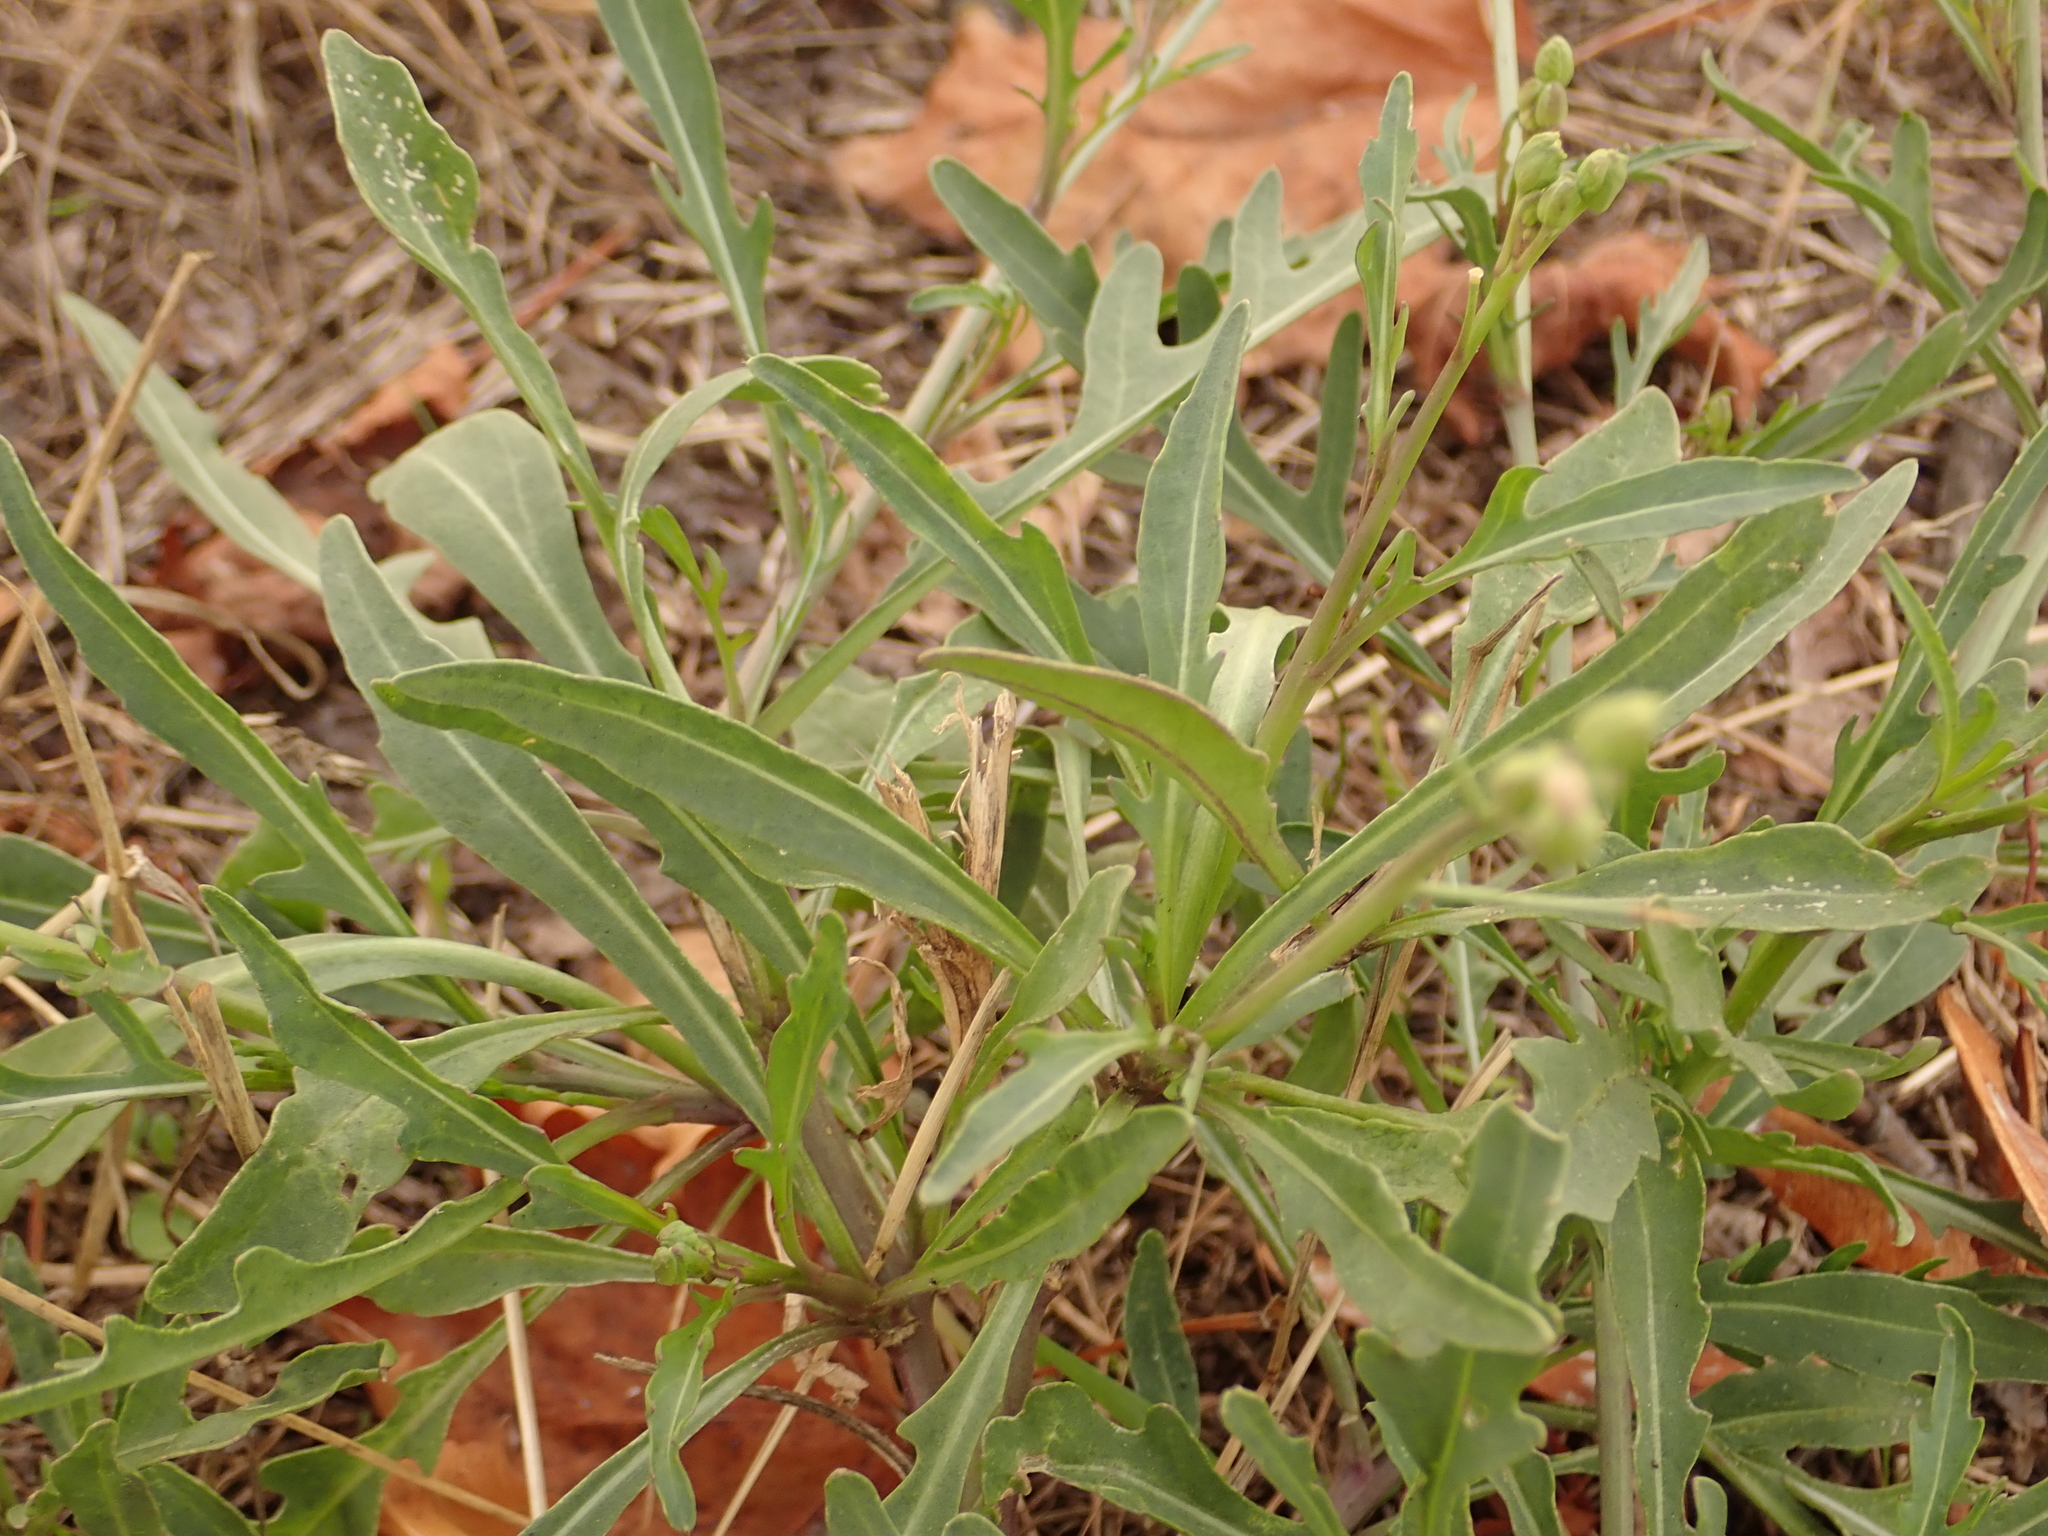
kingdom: Plantae
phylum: Tracheophyta
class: Magnoliopsida
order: Brassicales
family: Brassicaceae
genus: Diplotaxis
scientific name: Diplotaxis tenuifolia
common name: Perennial wall-rocket
